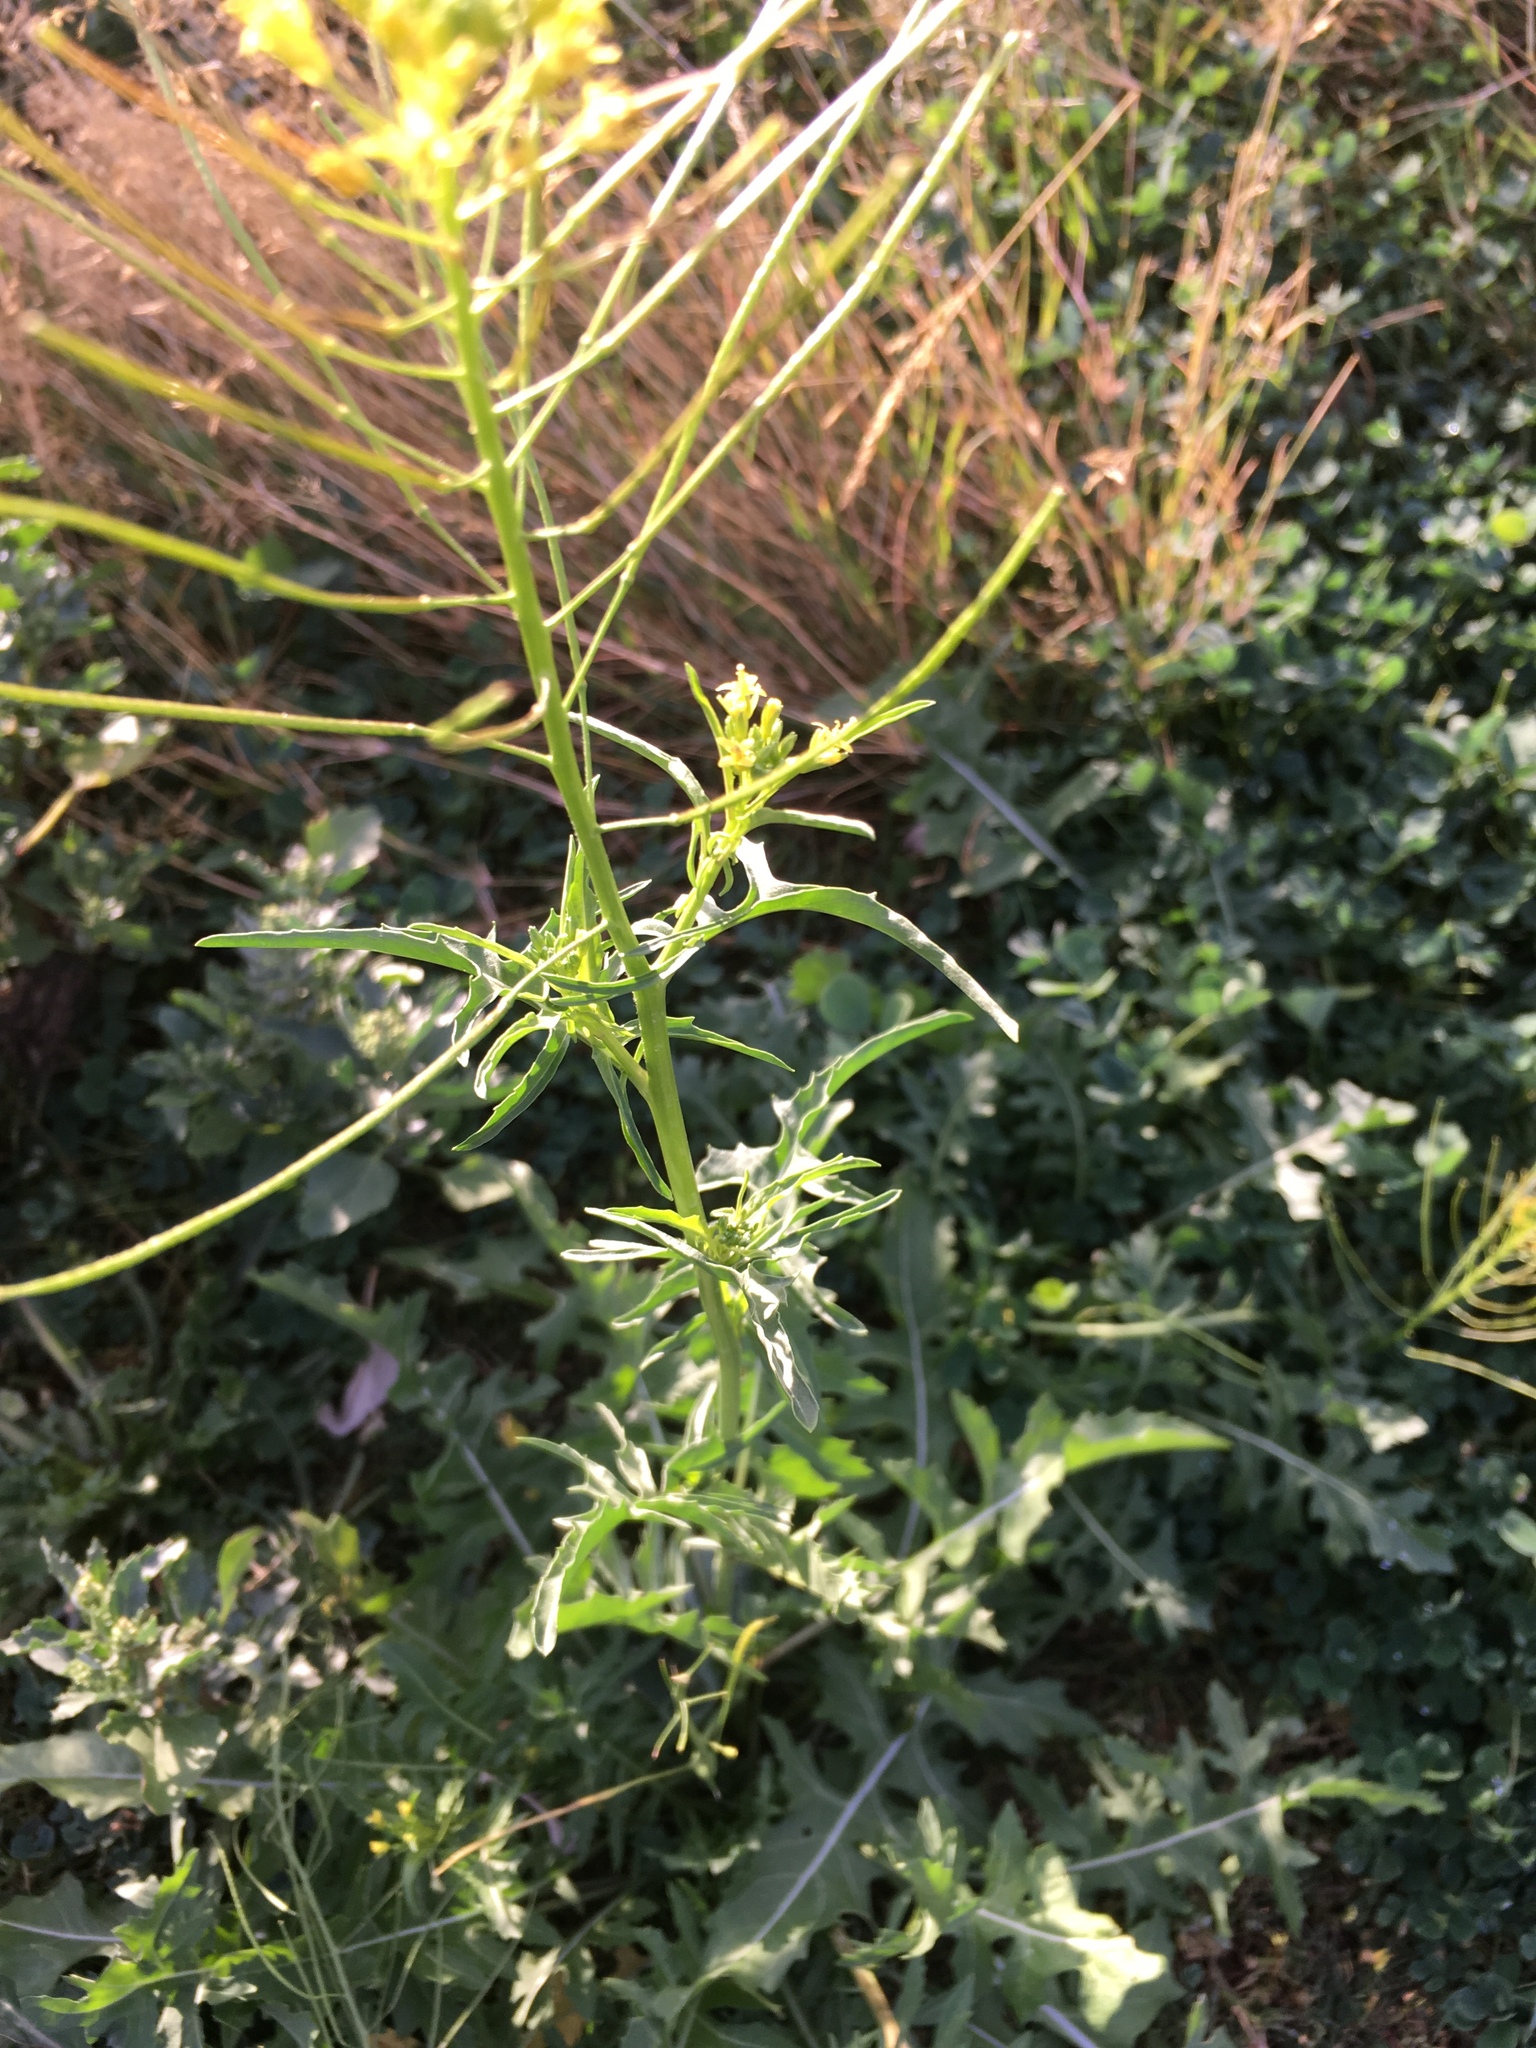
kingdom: Plantae
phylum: Tracheophyta
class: Magnoliopsida
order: Brassicales
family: Brassicaceae
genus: Sisymbrium
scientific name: Sisymbrium irio
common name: London rocket
